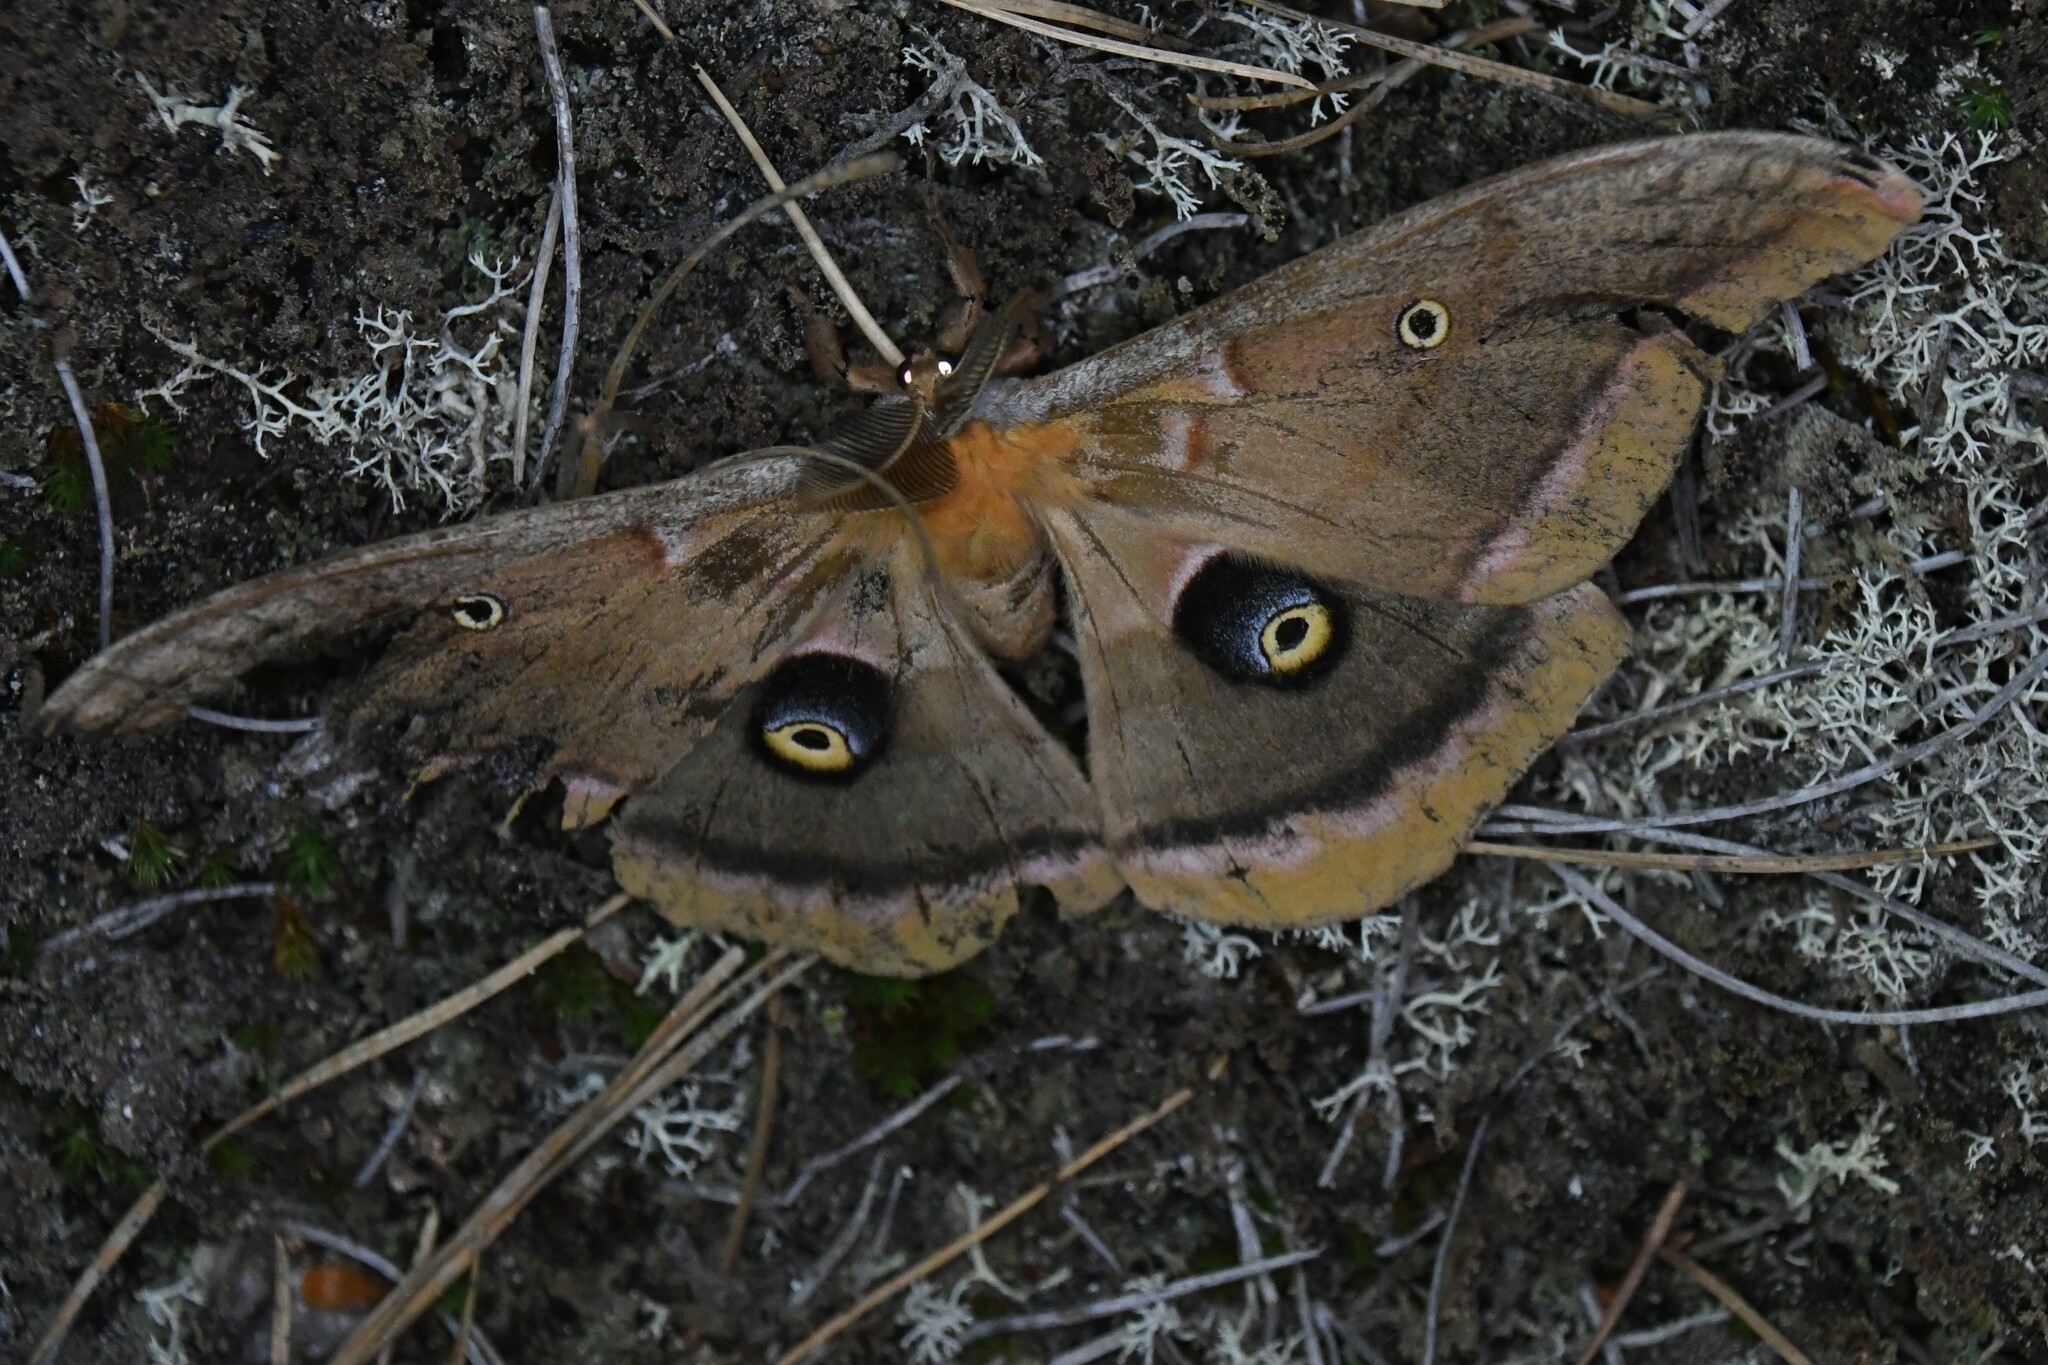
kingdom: Animalia
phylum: Arthropoda
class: Insecta
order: Lepidoptera
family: Saturniidae
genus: Antheraea
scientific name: Antheraea polyphemus
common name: Polyphemus moth
